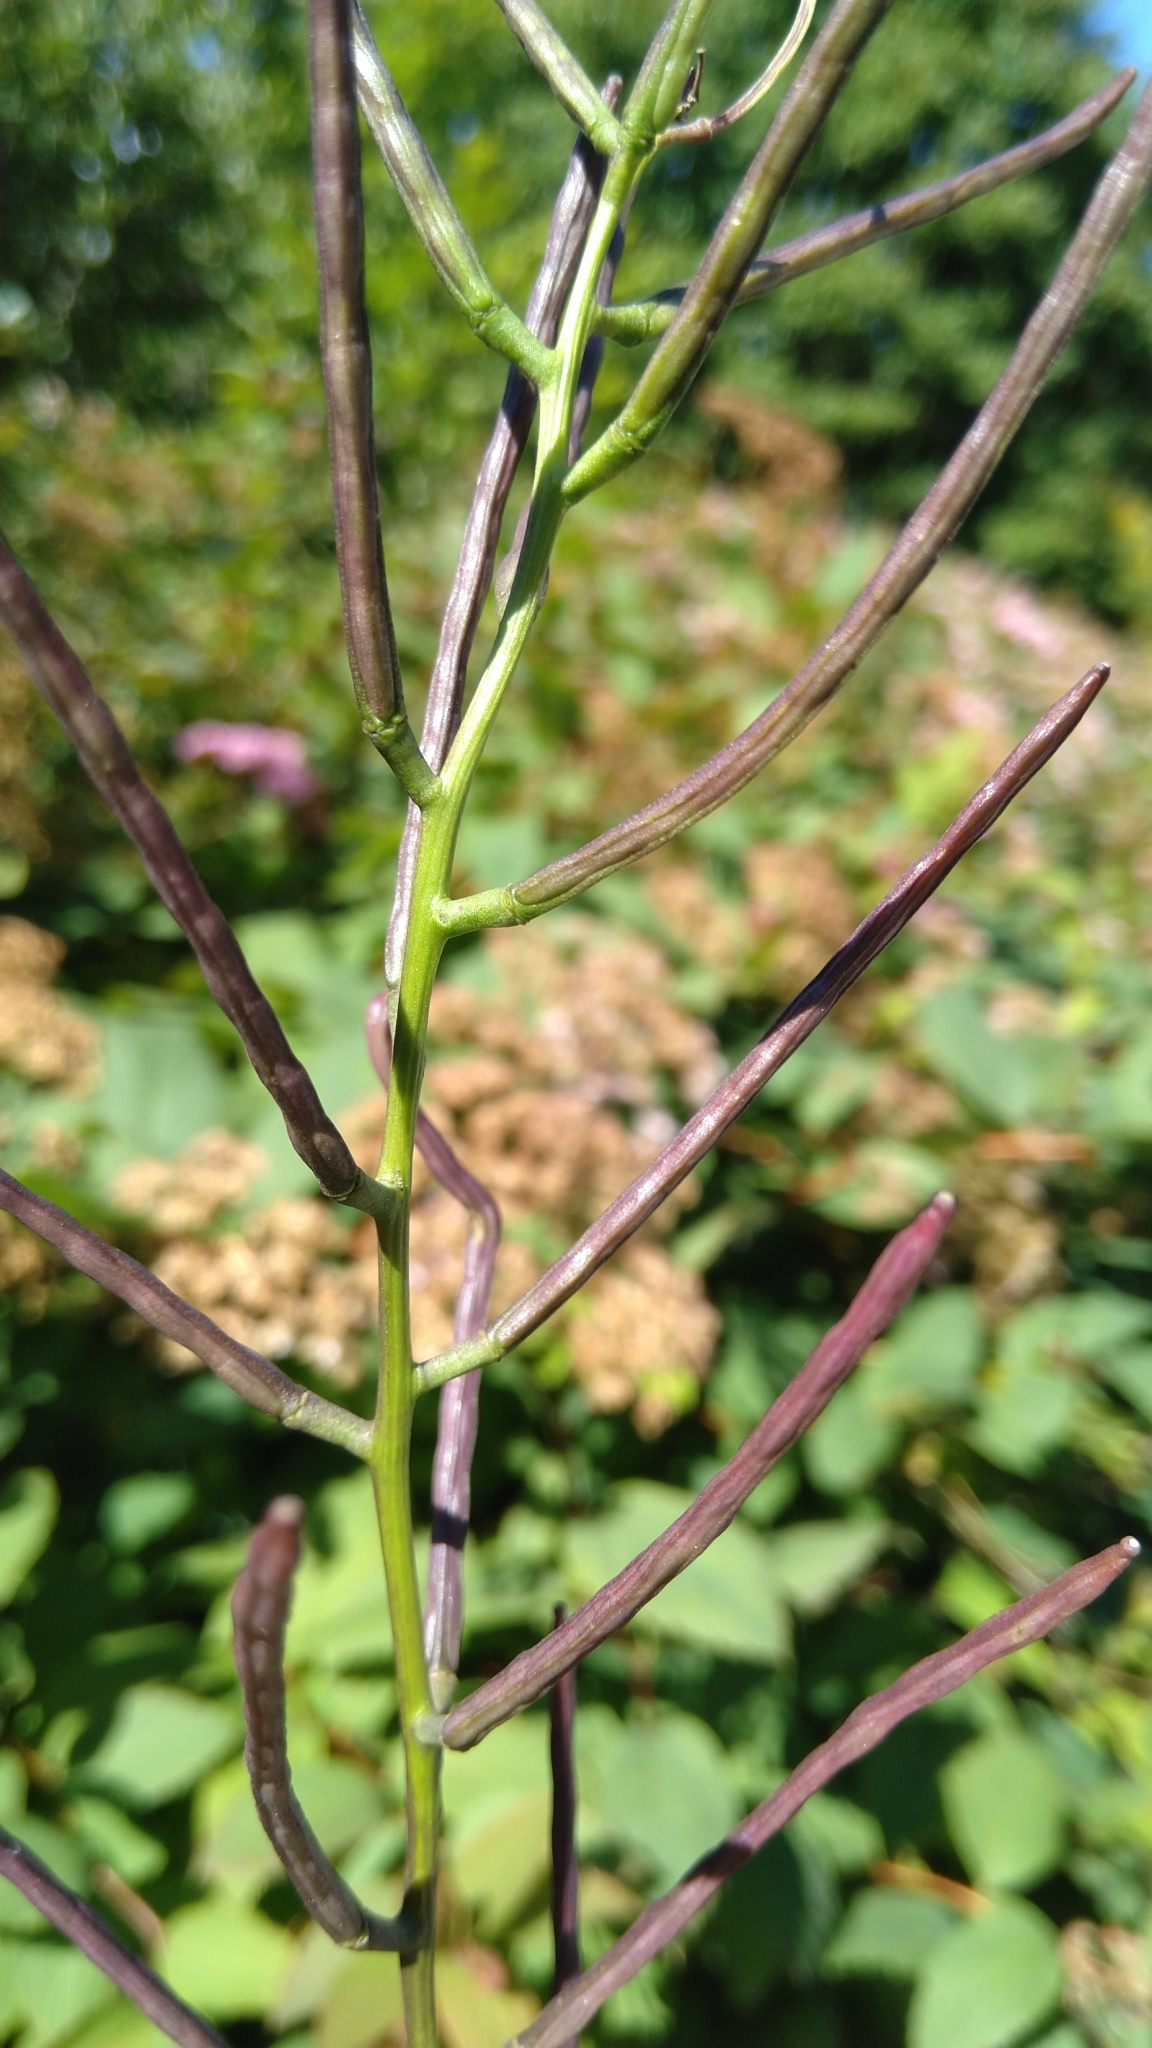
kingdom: Plantae
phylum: Tracheophyta
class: Magnoliopsida
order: Brassicales
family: Brassicaceae
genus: Alliaria
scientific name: Alliaria petiolata
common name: Garlic mustard
